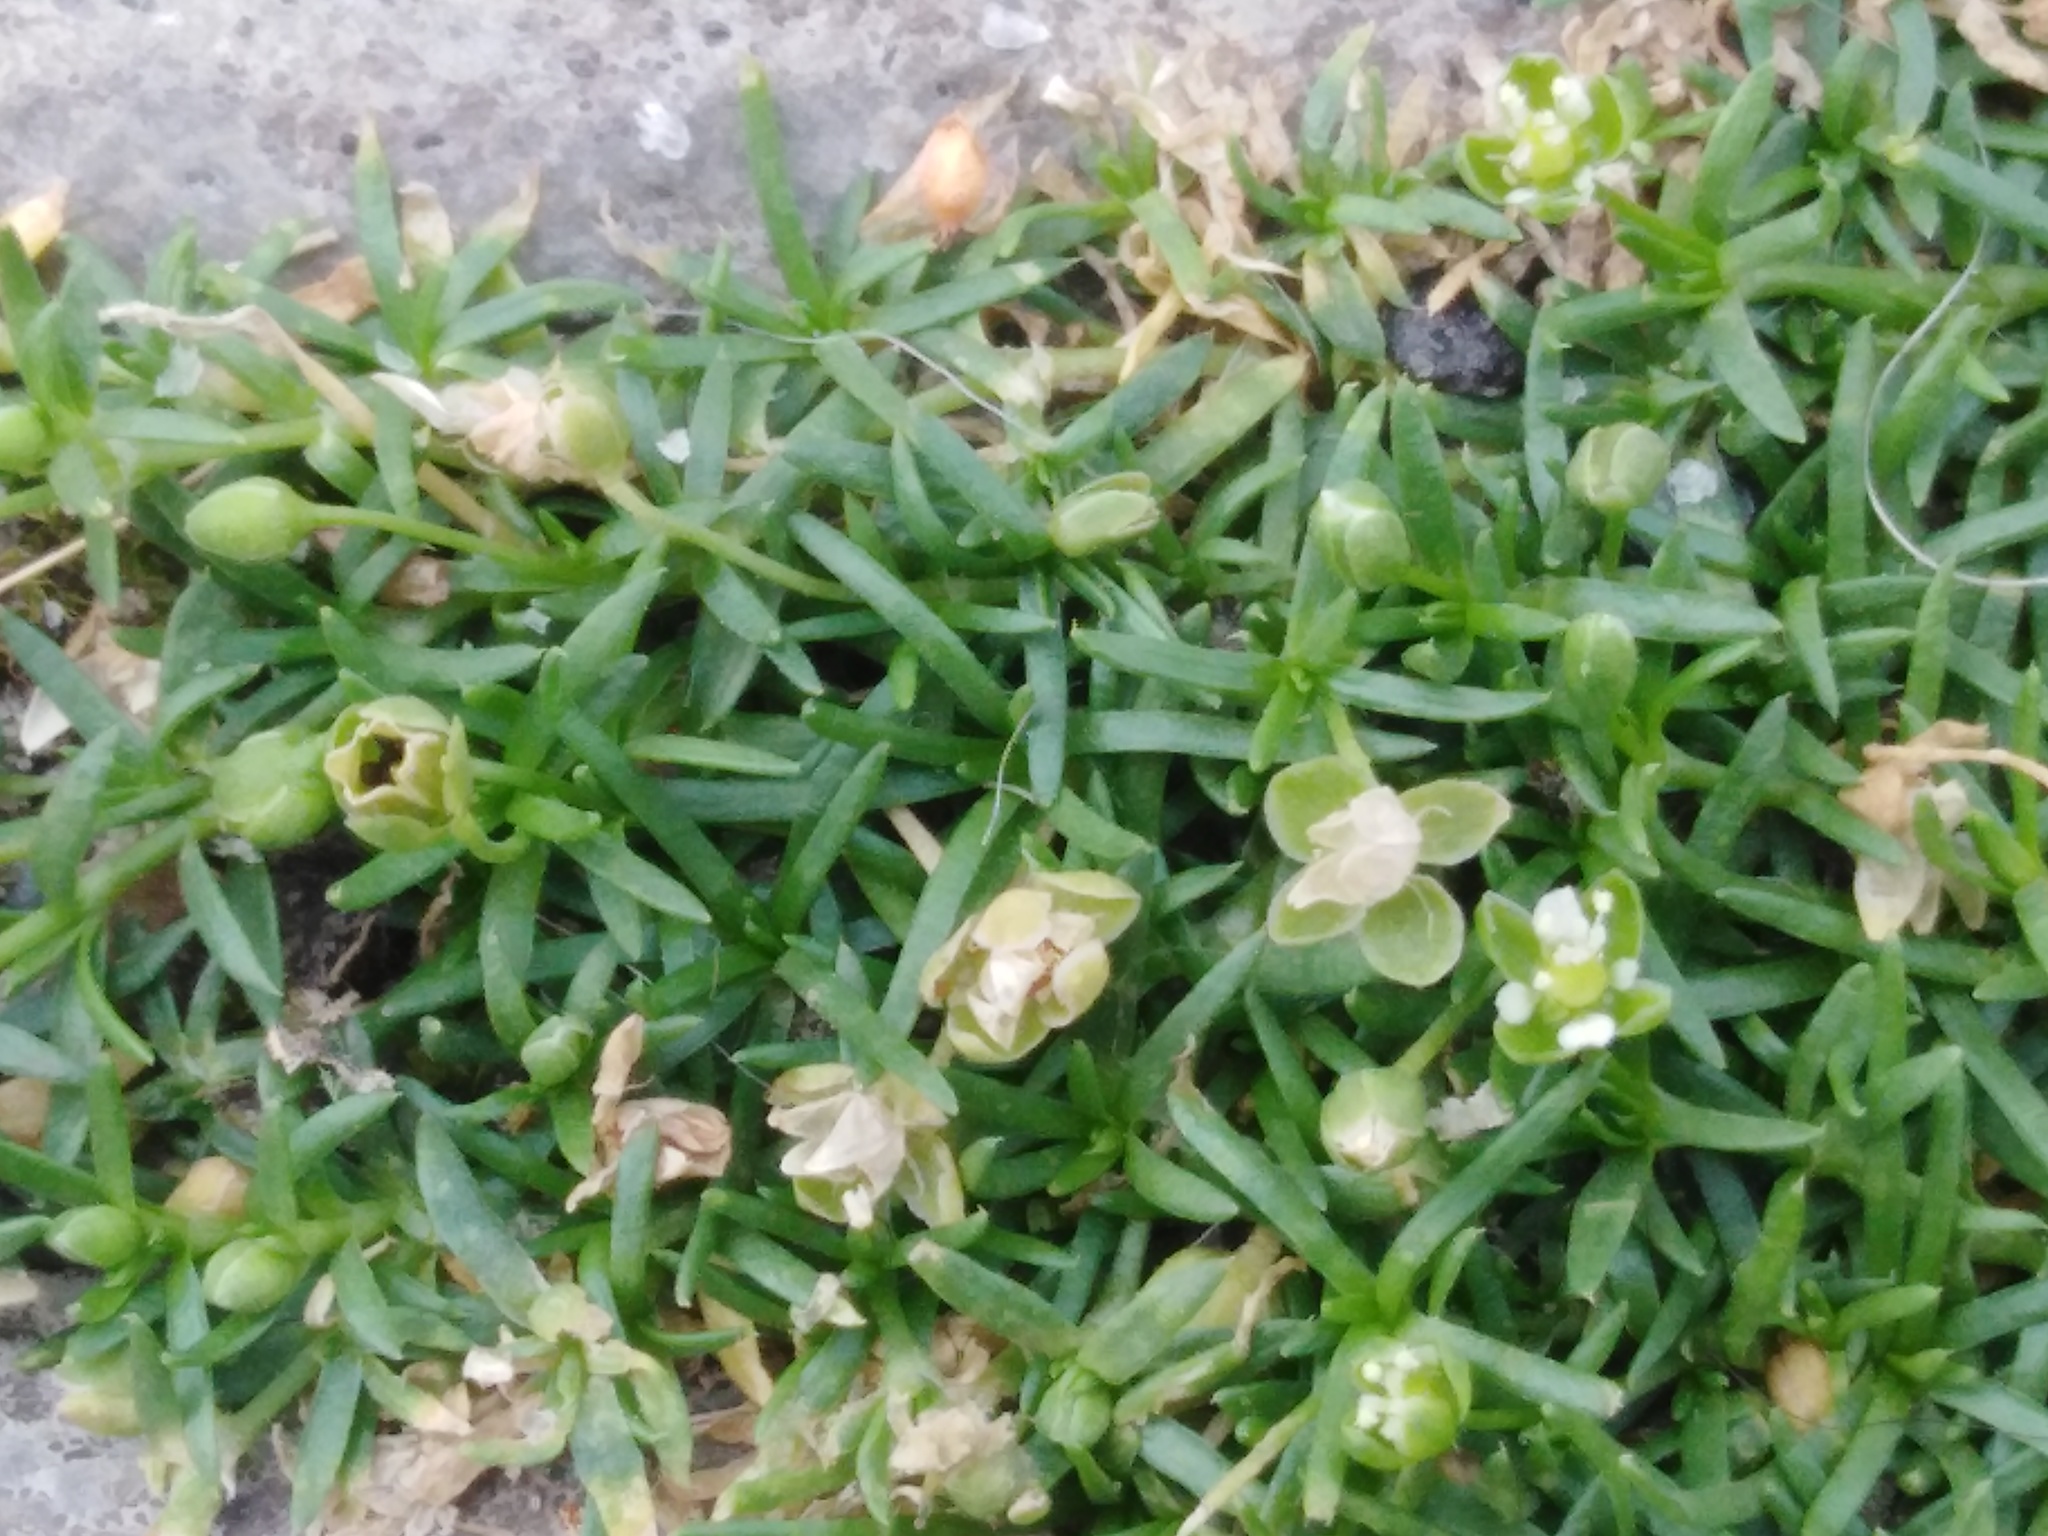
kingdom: Plantae
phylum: Tracheophyta
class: Magnoliopsida
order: Caryophyllales
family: Caryophyllaceae
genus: Sagina
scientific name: Sagina procumbens
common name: Procumbent pearlwort
